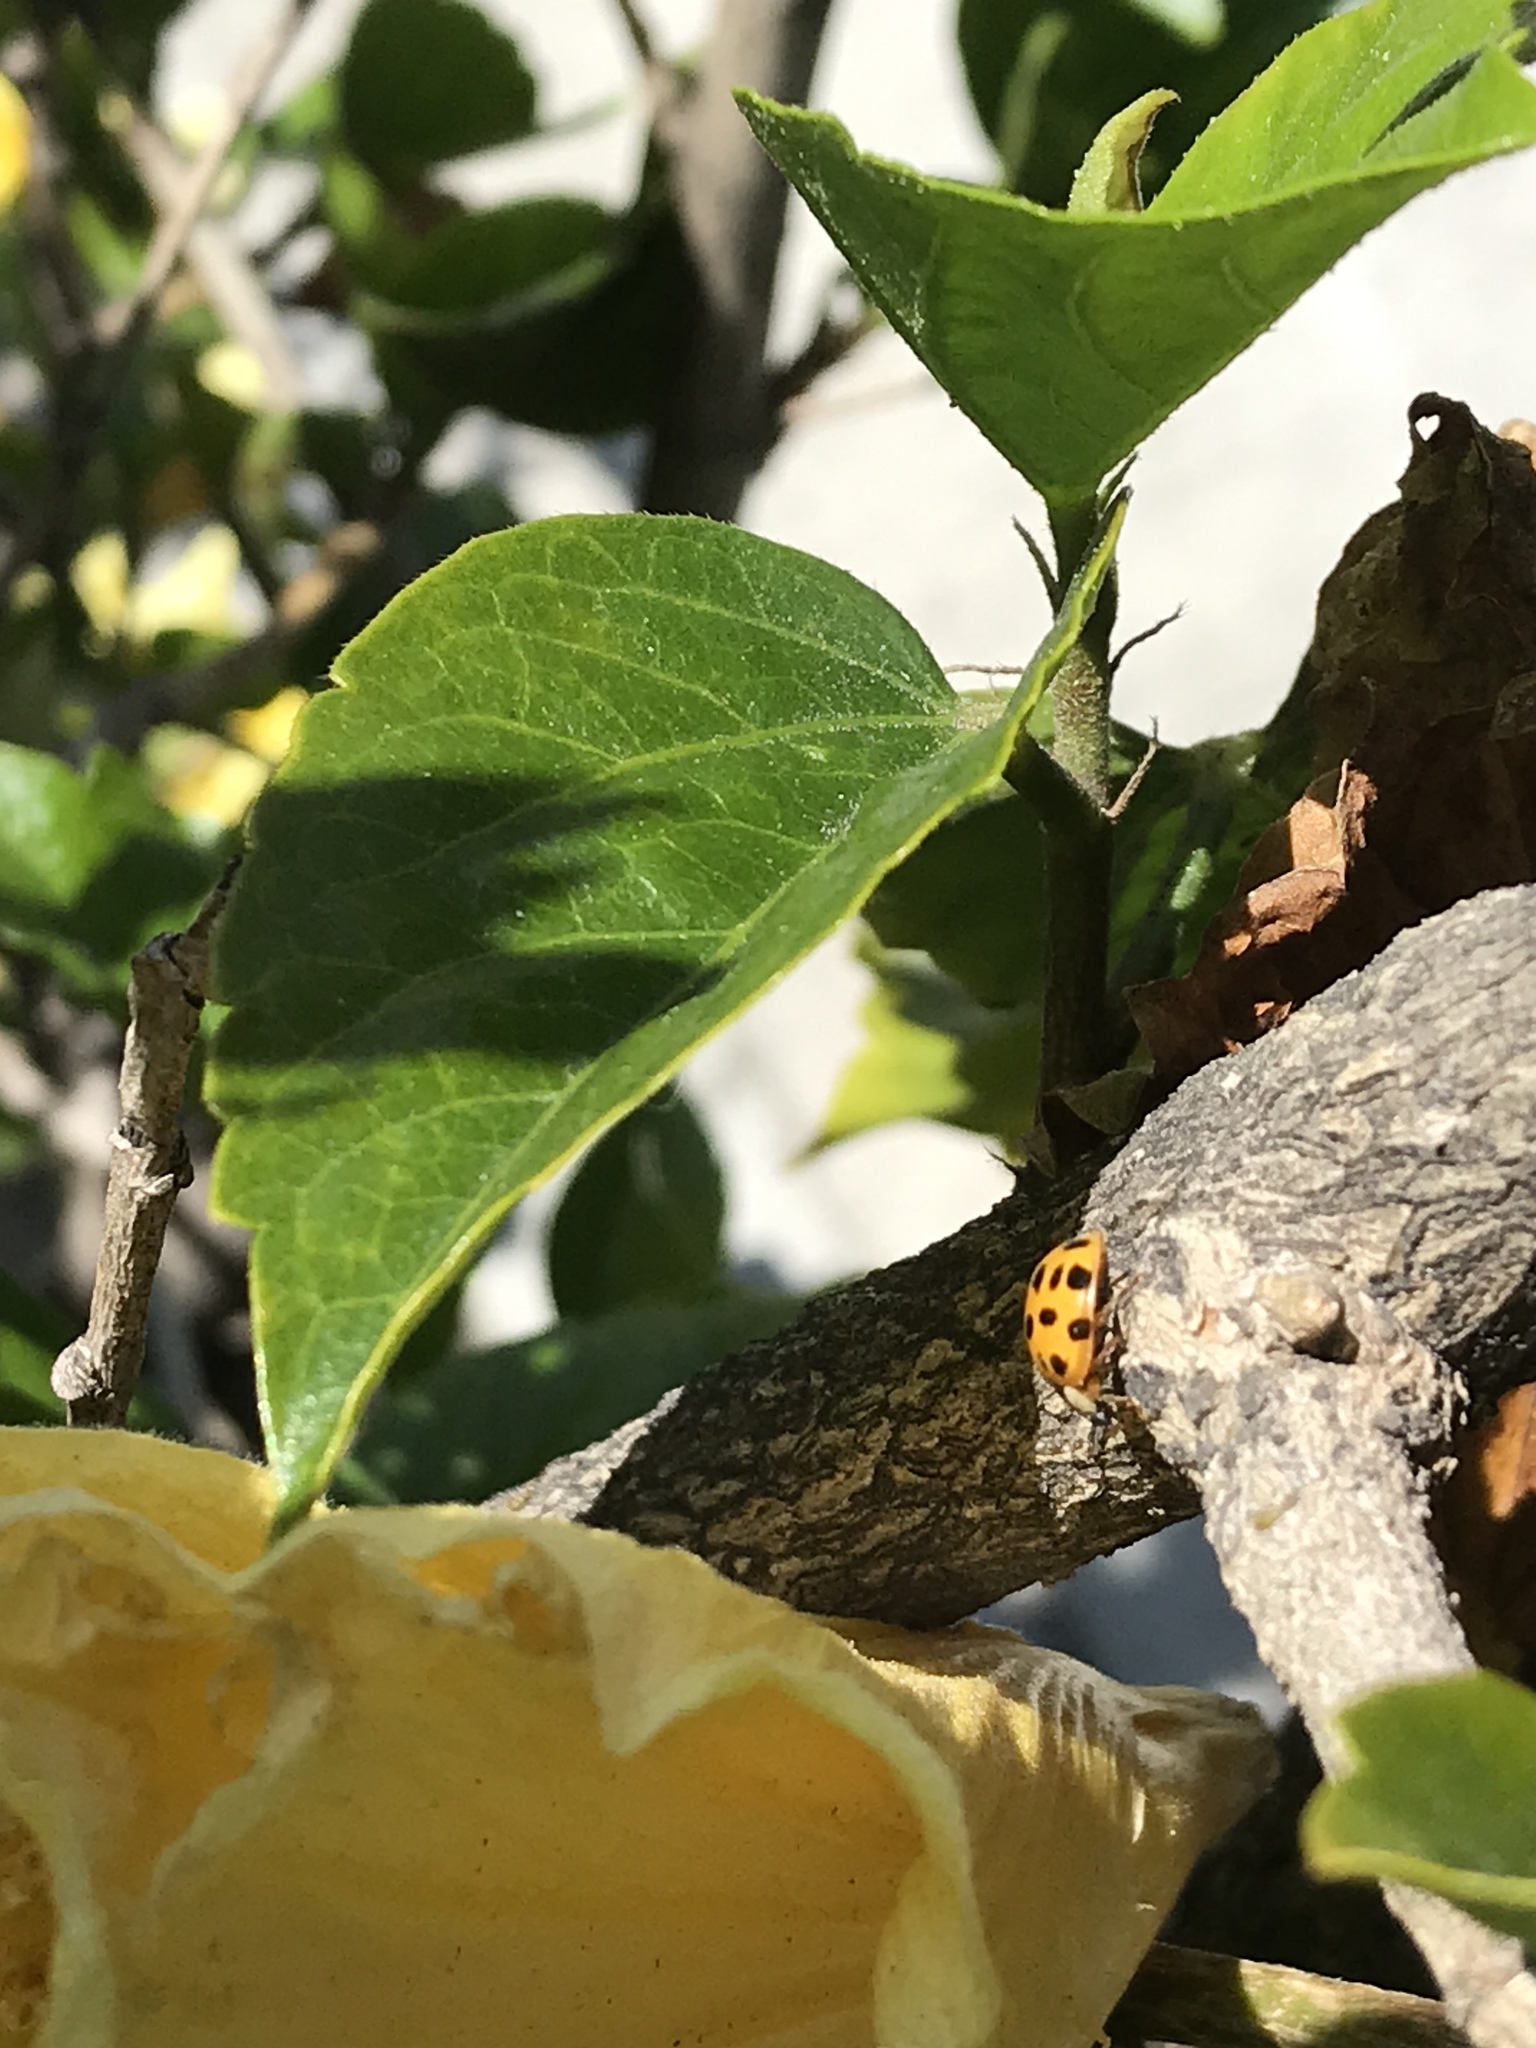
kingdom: Animalia
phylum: Arthropoda
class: Insecta
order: Coleoptera
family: Coccinellidae
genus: Harmonia
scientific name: Harmonia axyridis
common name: Harlequin ladybird
